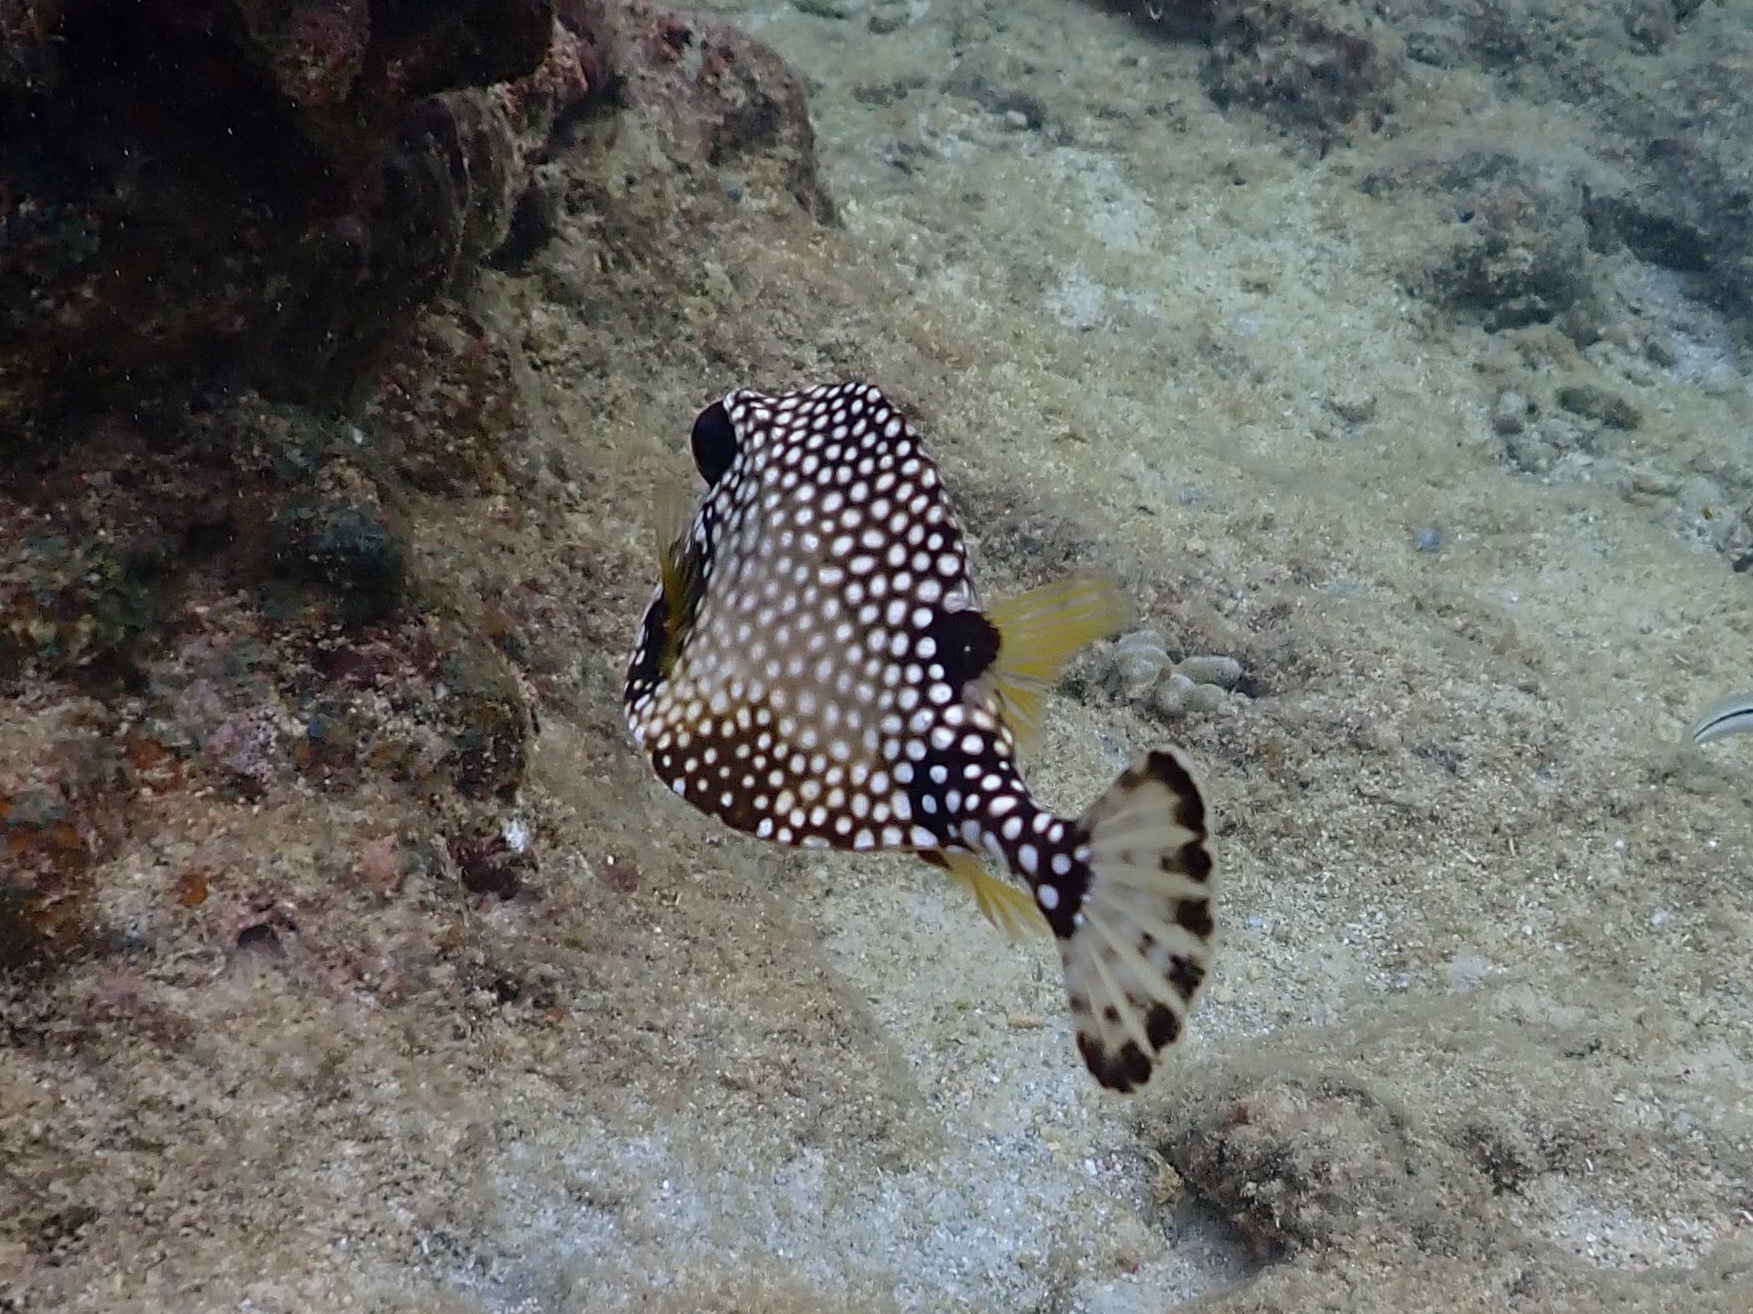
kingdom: Animalia
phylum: Chordata
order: Tetraodontiformes
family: Ostraciidae
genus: Lactophrys
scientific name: Lactophrys triqueter
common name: Smooth trunkfish
